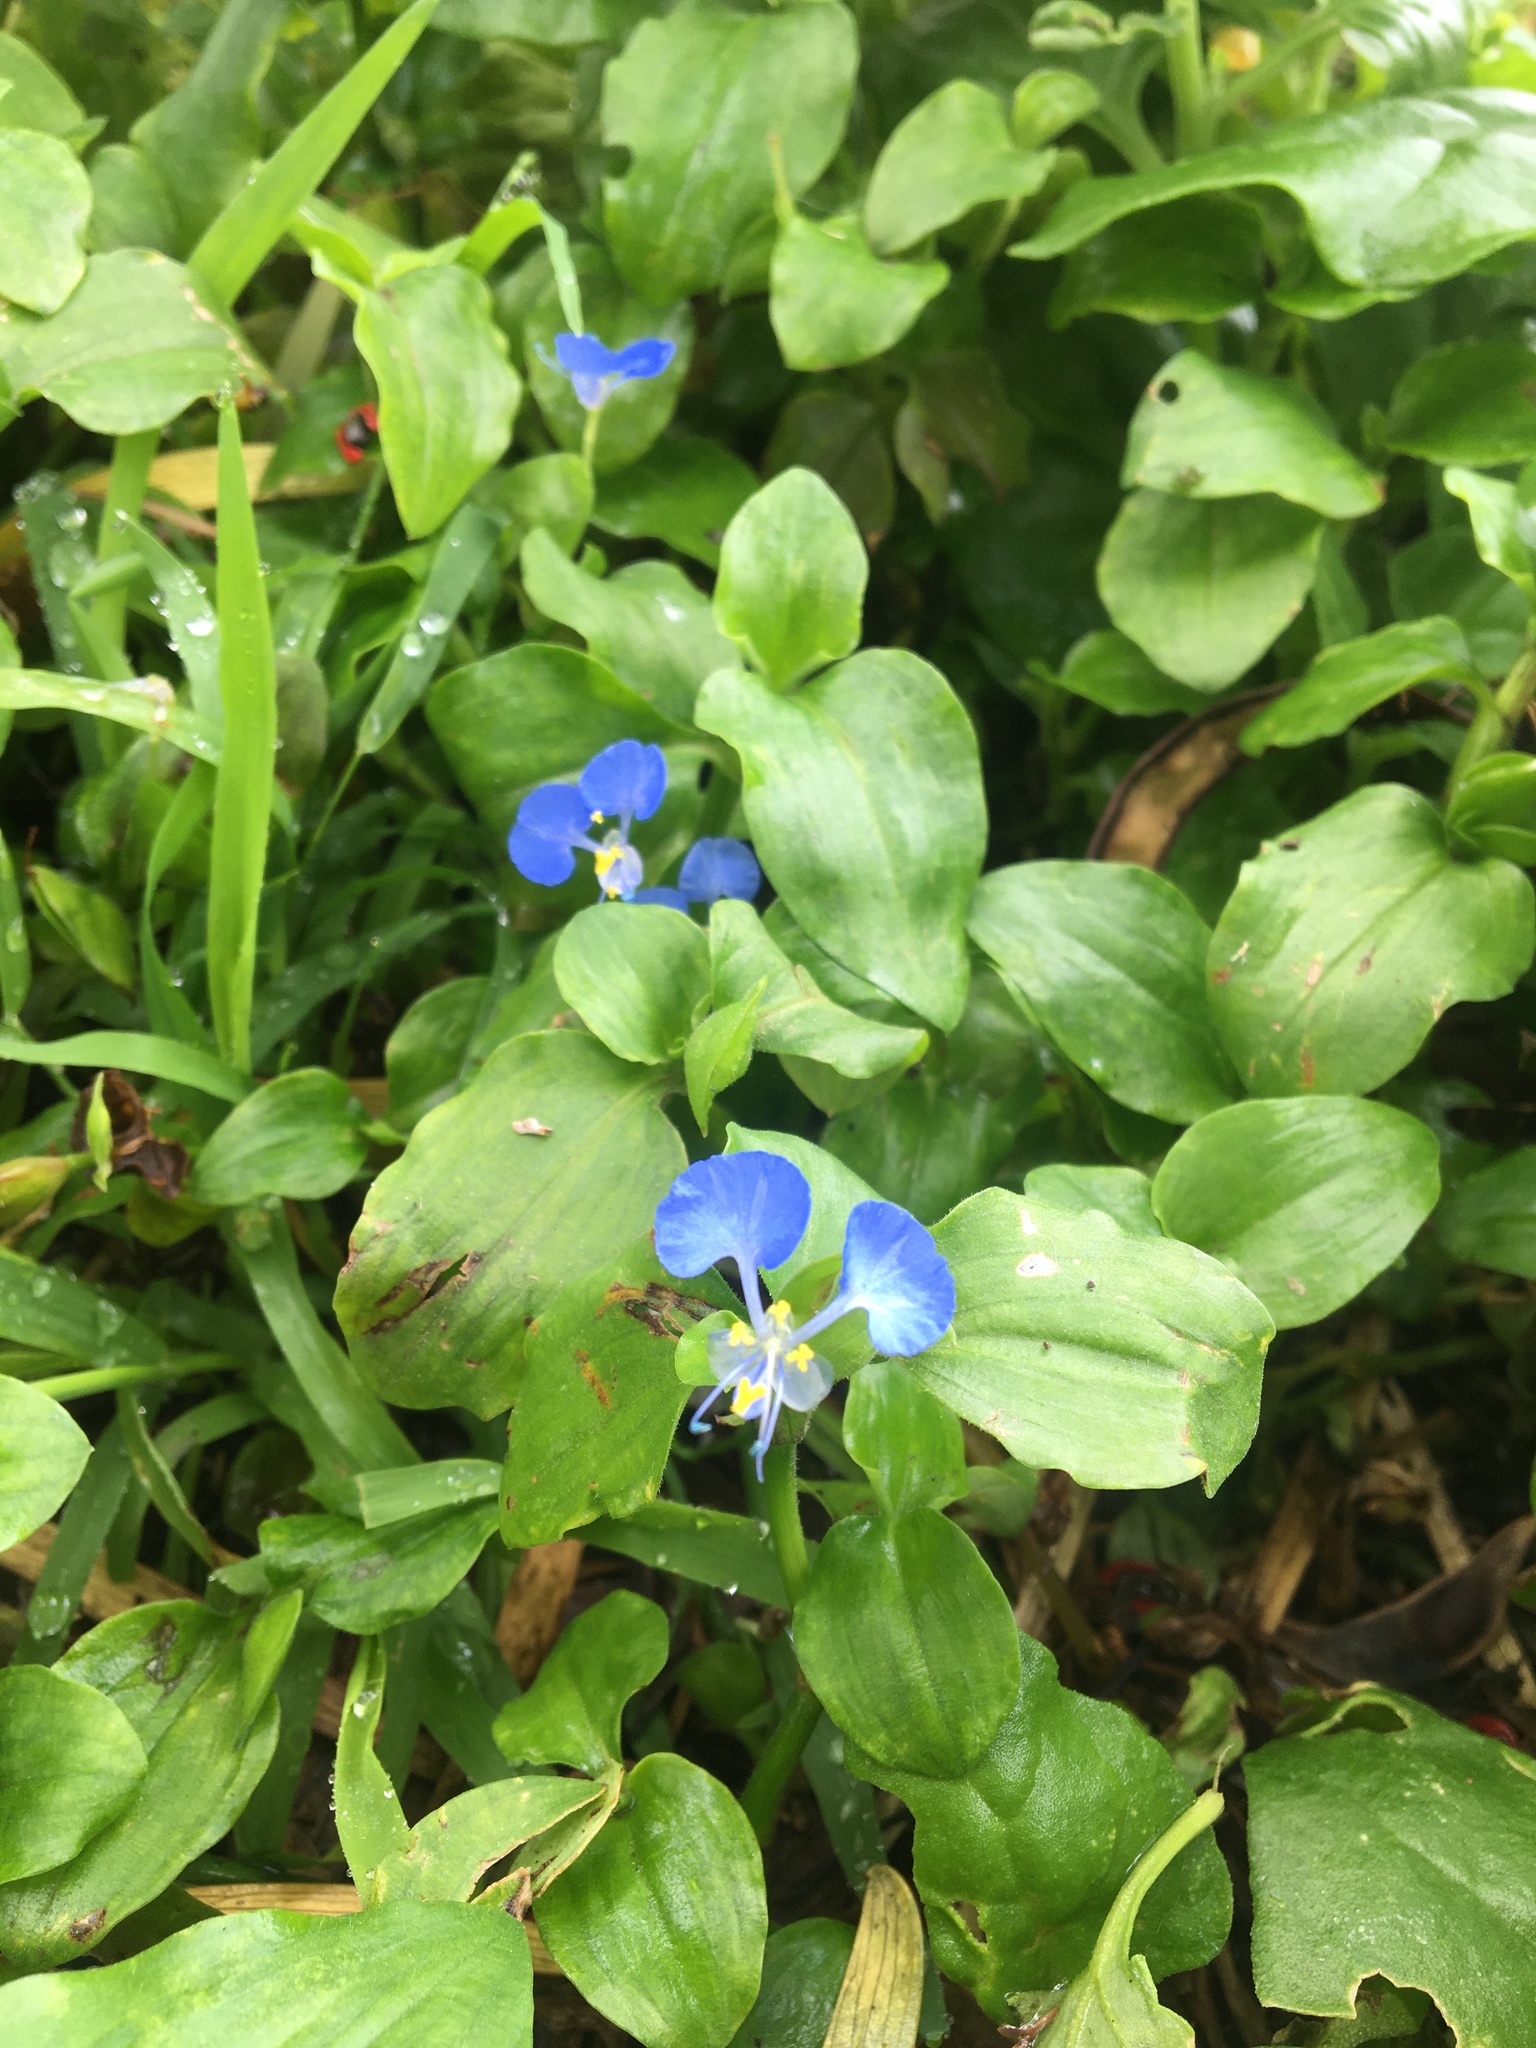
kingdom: Plantae
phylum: Tracheophyta
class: Liliopsida
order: Commelinales
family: Commelinaceae
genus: Commelina
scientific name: Commelina benghalensis
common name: Jio
